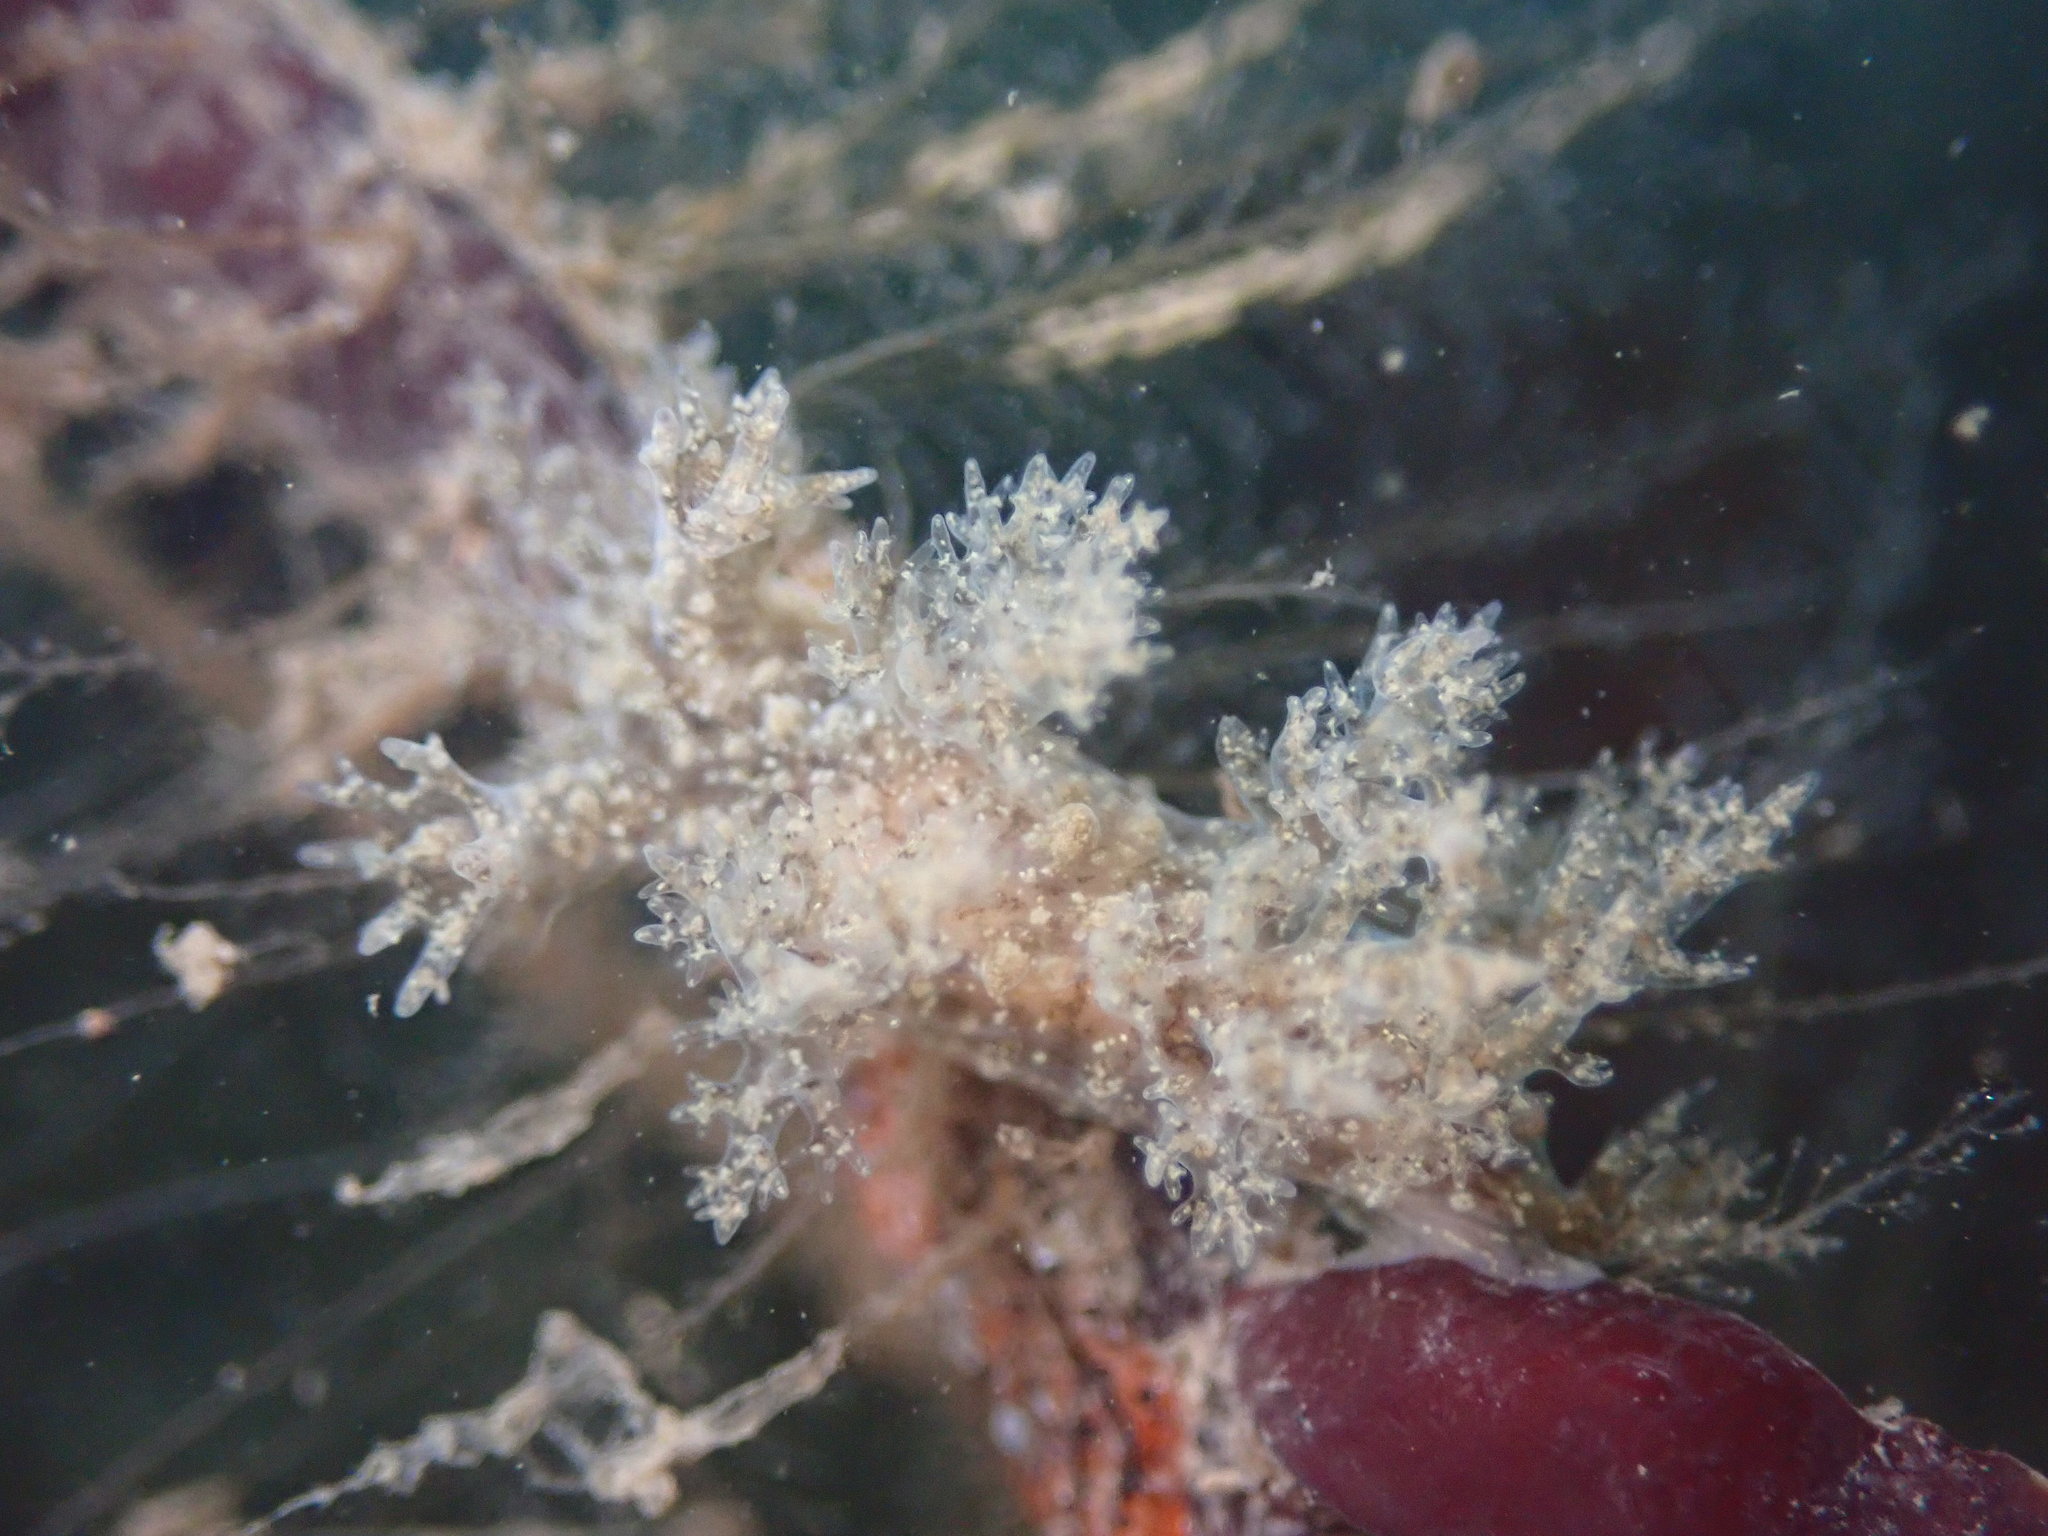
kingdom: Animalia
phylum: Mollusca
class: Gastropoda
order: Nudibranchia
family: Dendronotidae
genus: Dendronotus
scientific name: Dendronotus venustus
